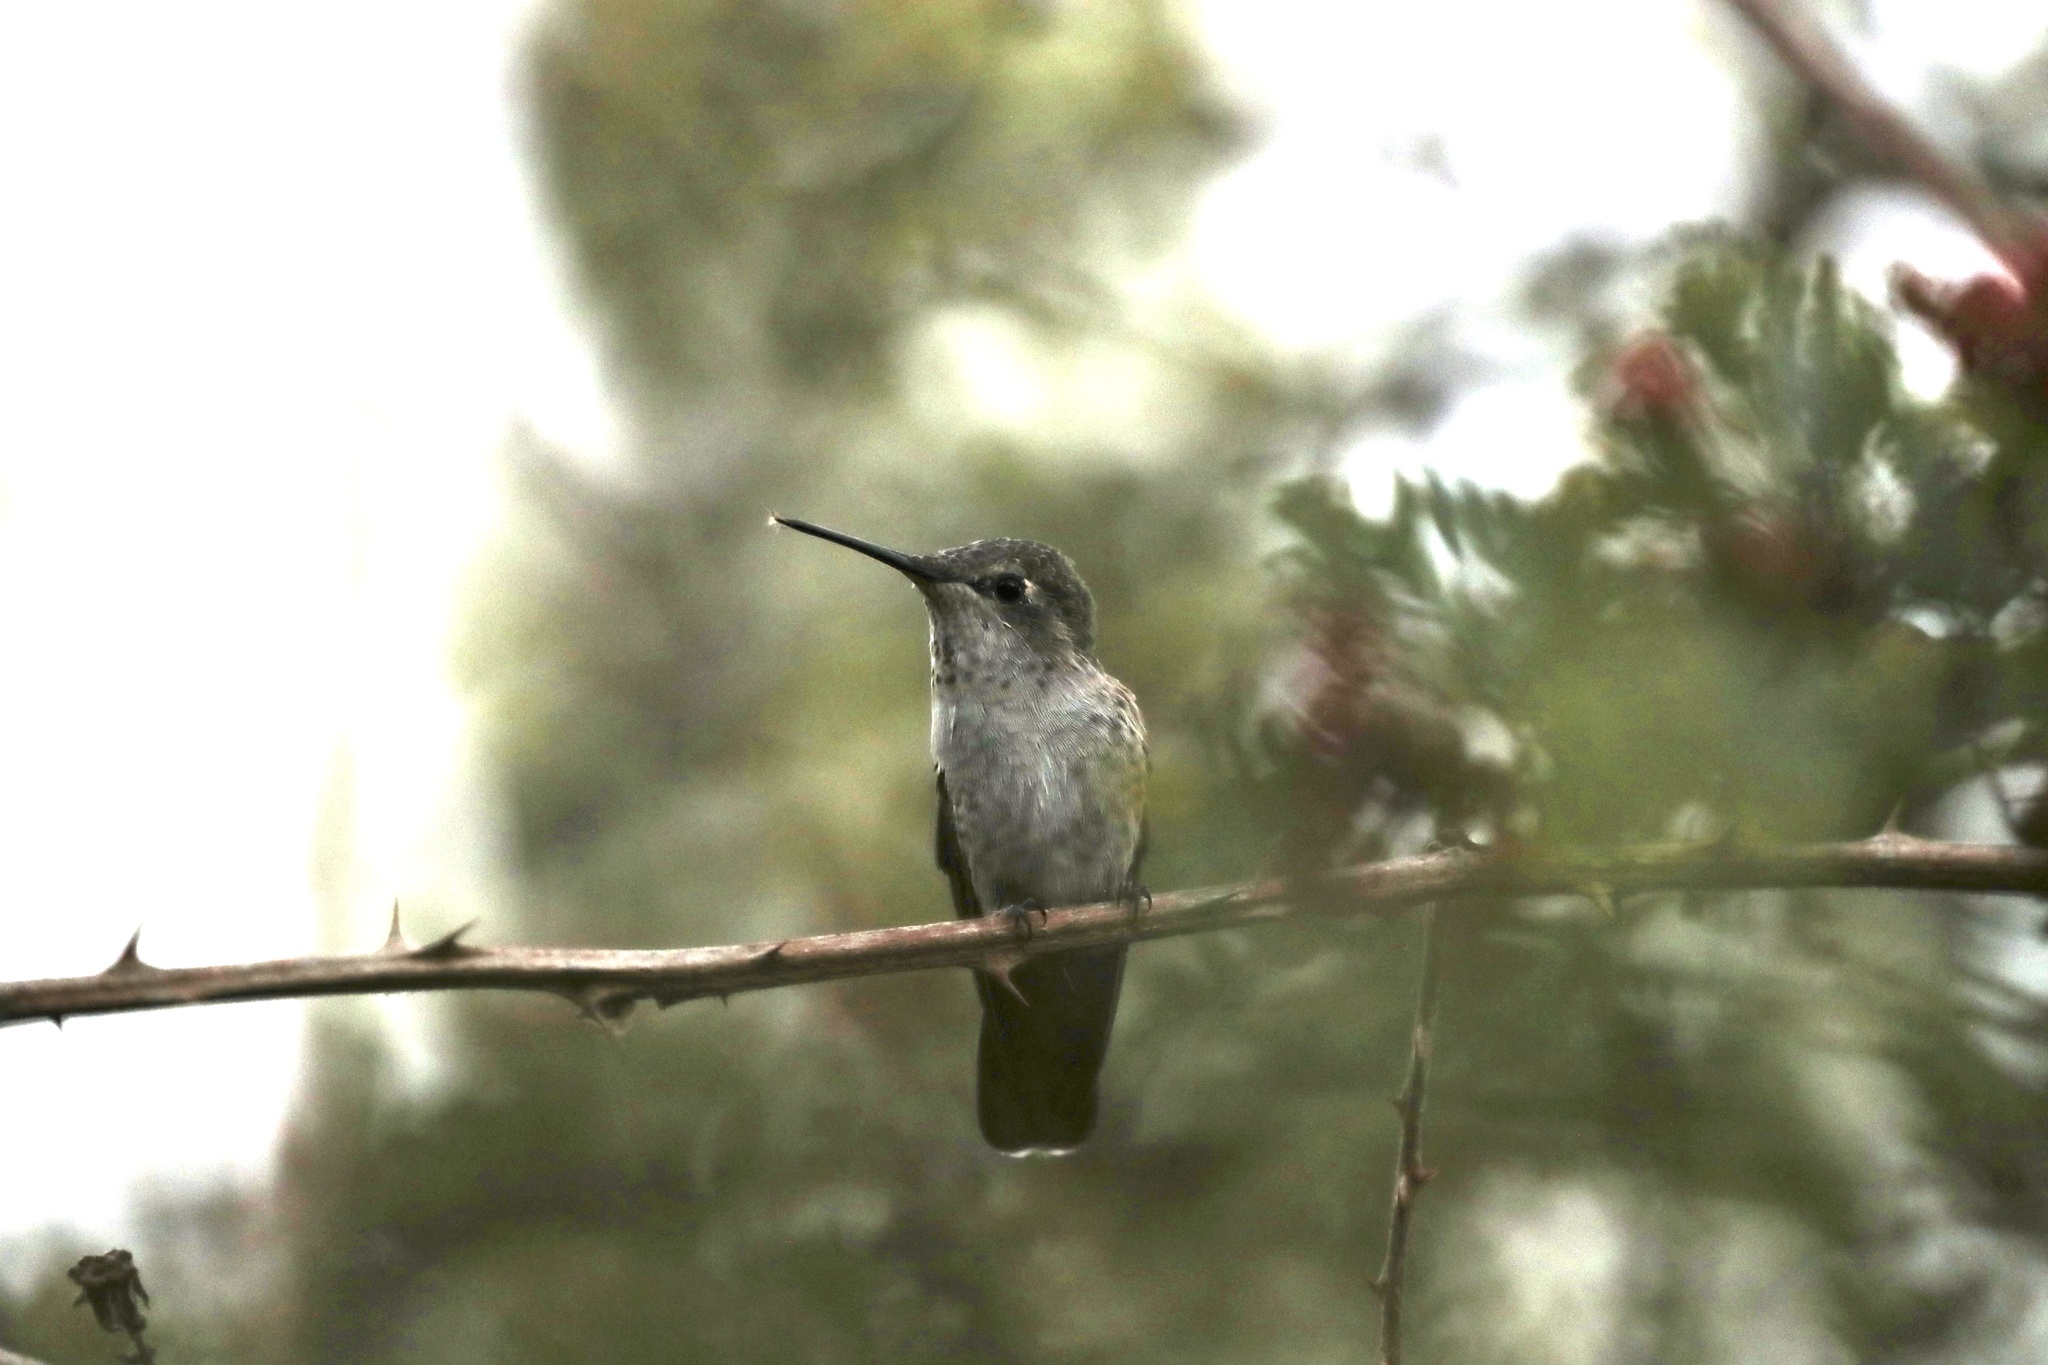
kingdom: Animalia
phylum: Chordata
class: Aves
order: Apodiformes
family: Trochilidae
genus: Calypte
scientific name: Calypte anna
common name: Anna's hummingbird
